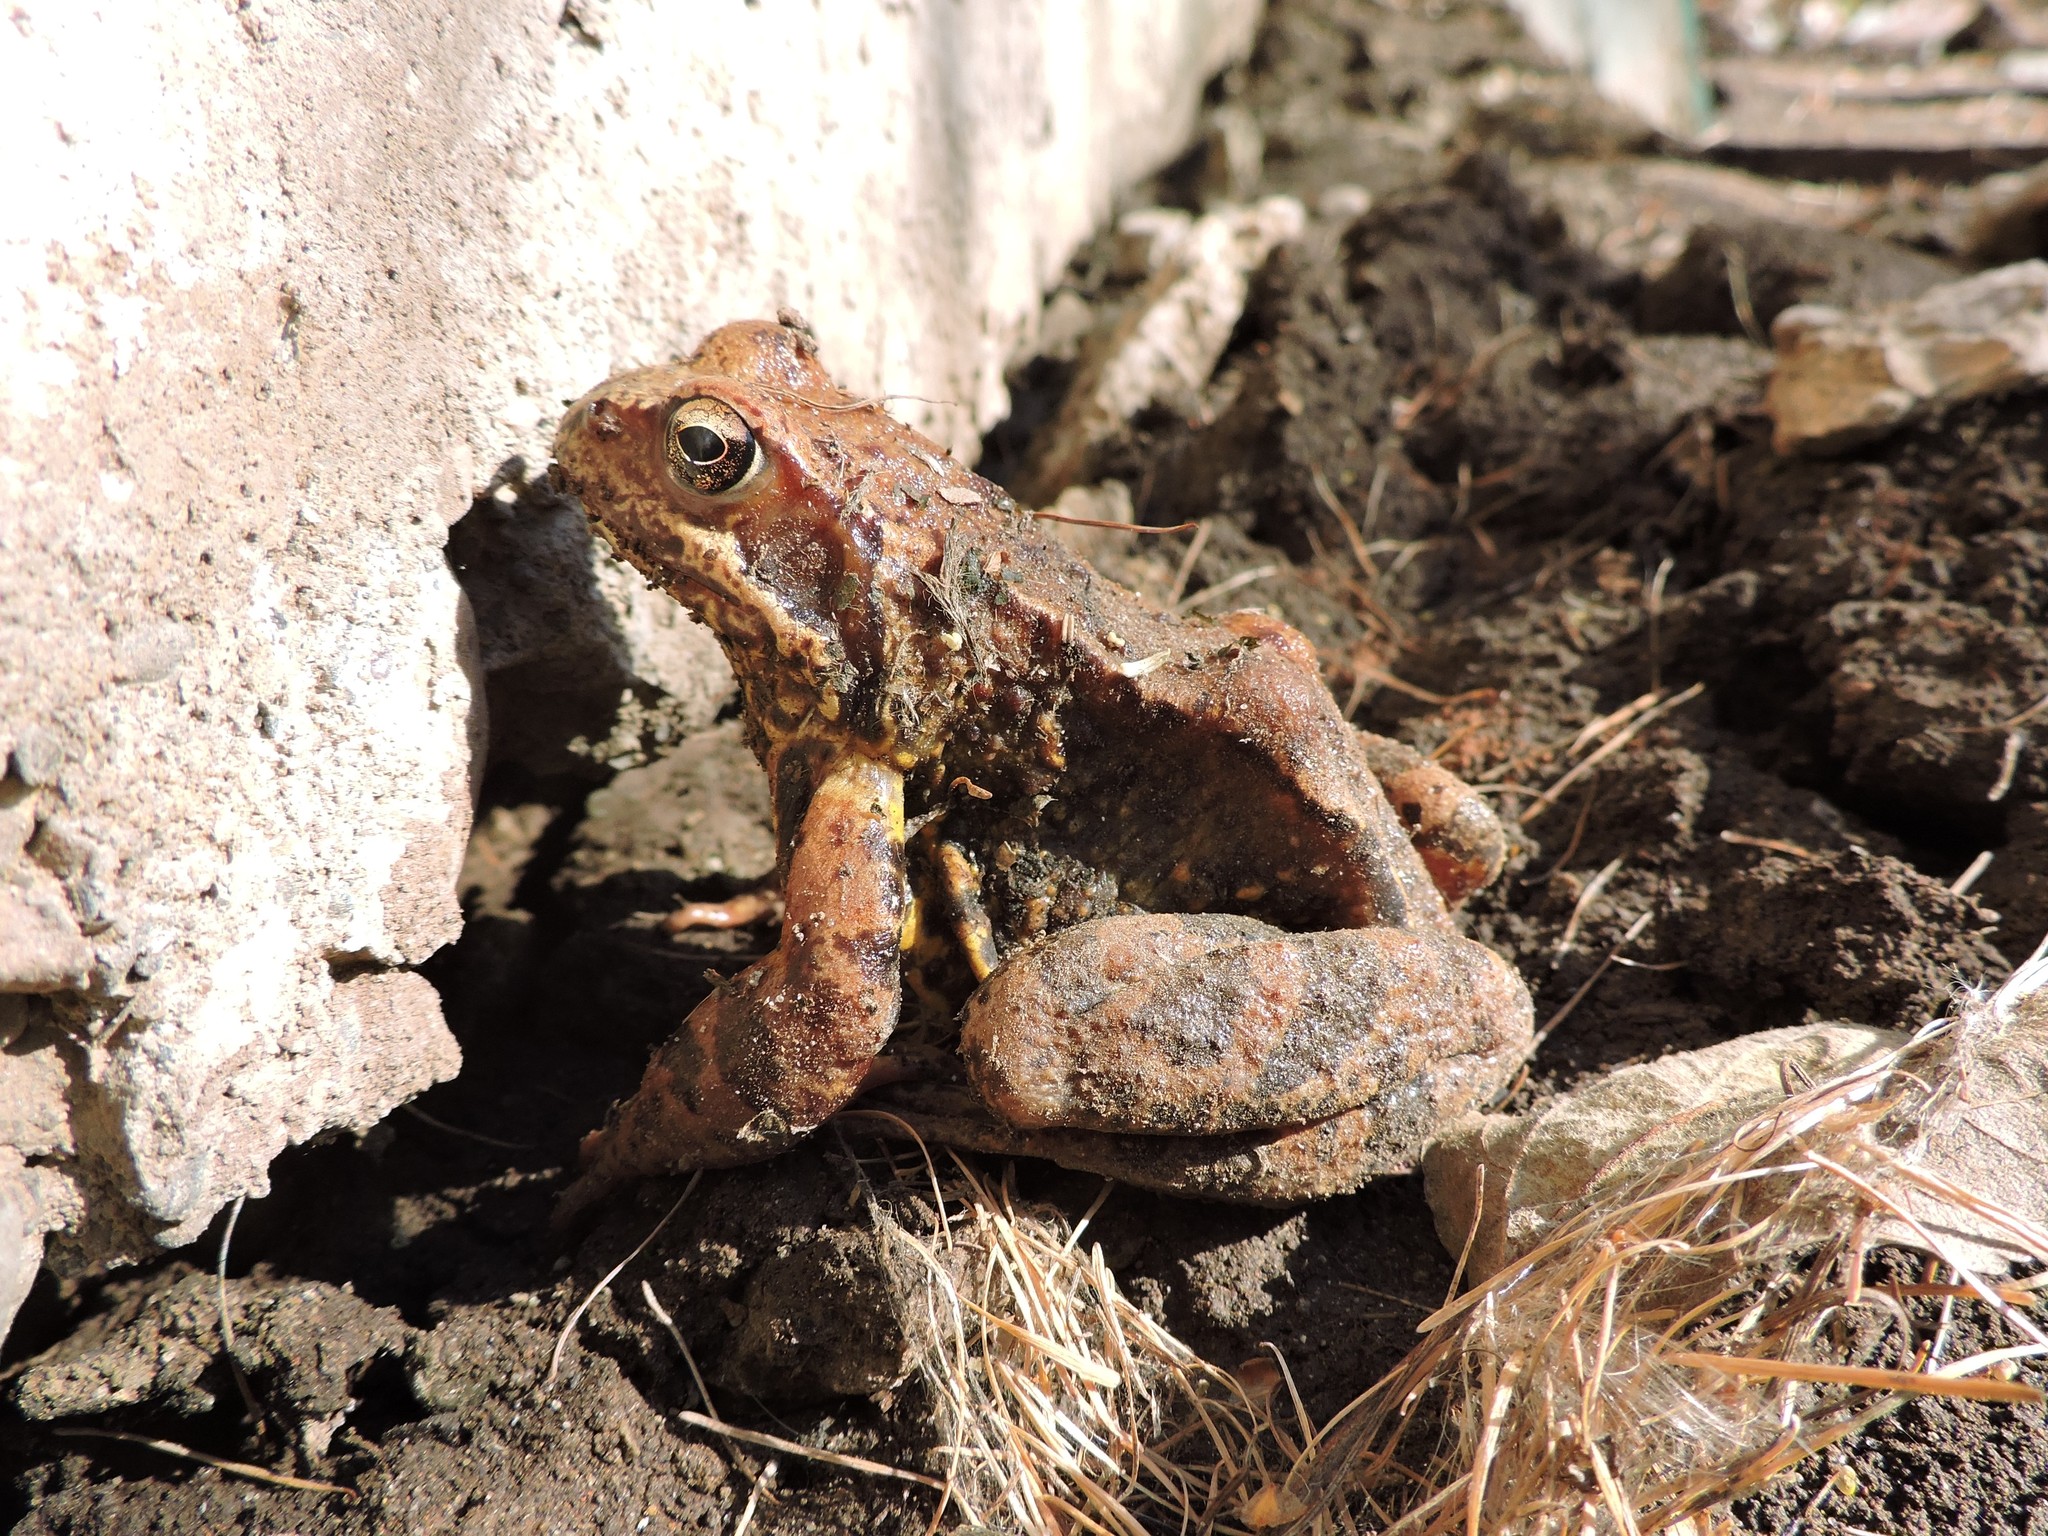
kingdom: Animalia
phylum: Chordata
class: Amphibia
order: Anura
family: Ranidae
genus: Rana
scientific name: Rana temporaria
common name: Common frog
